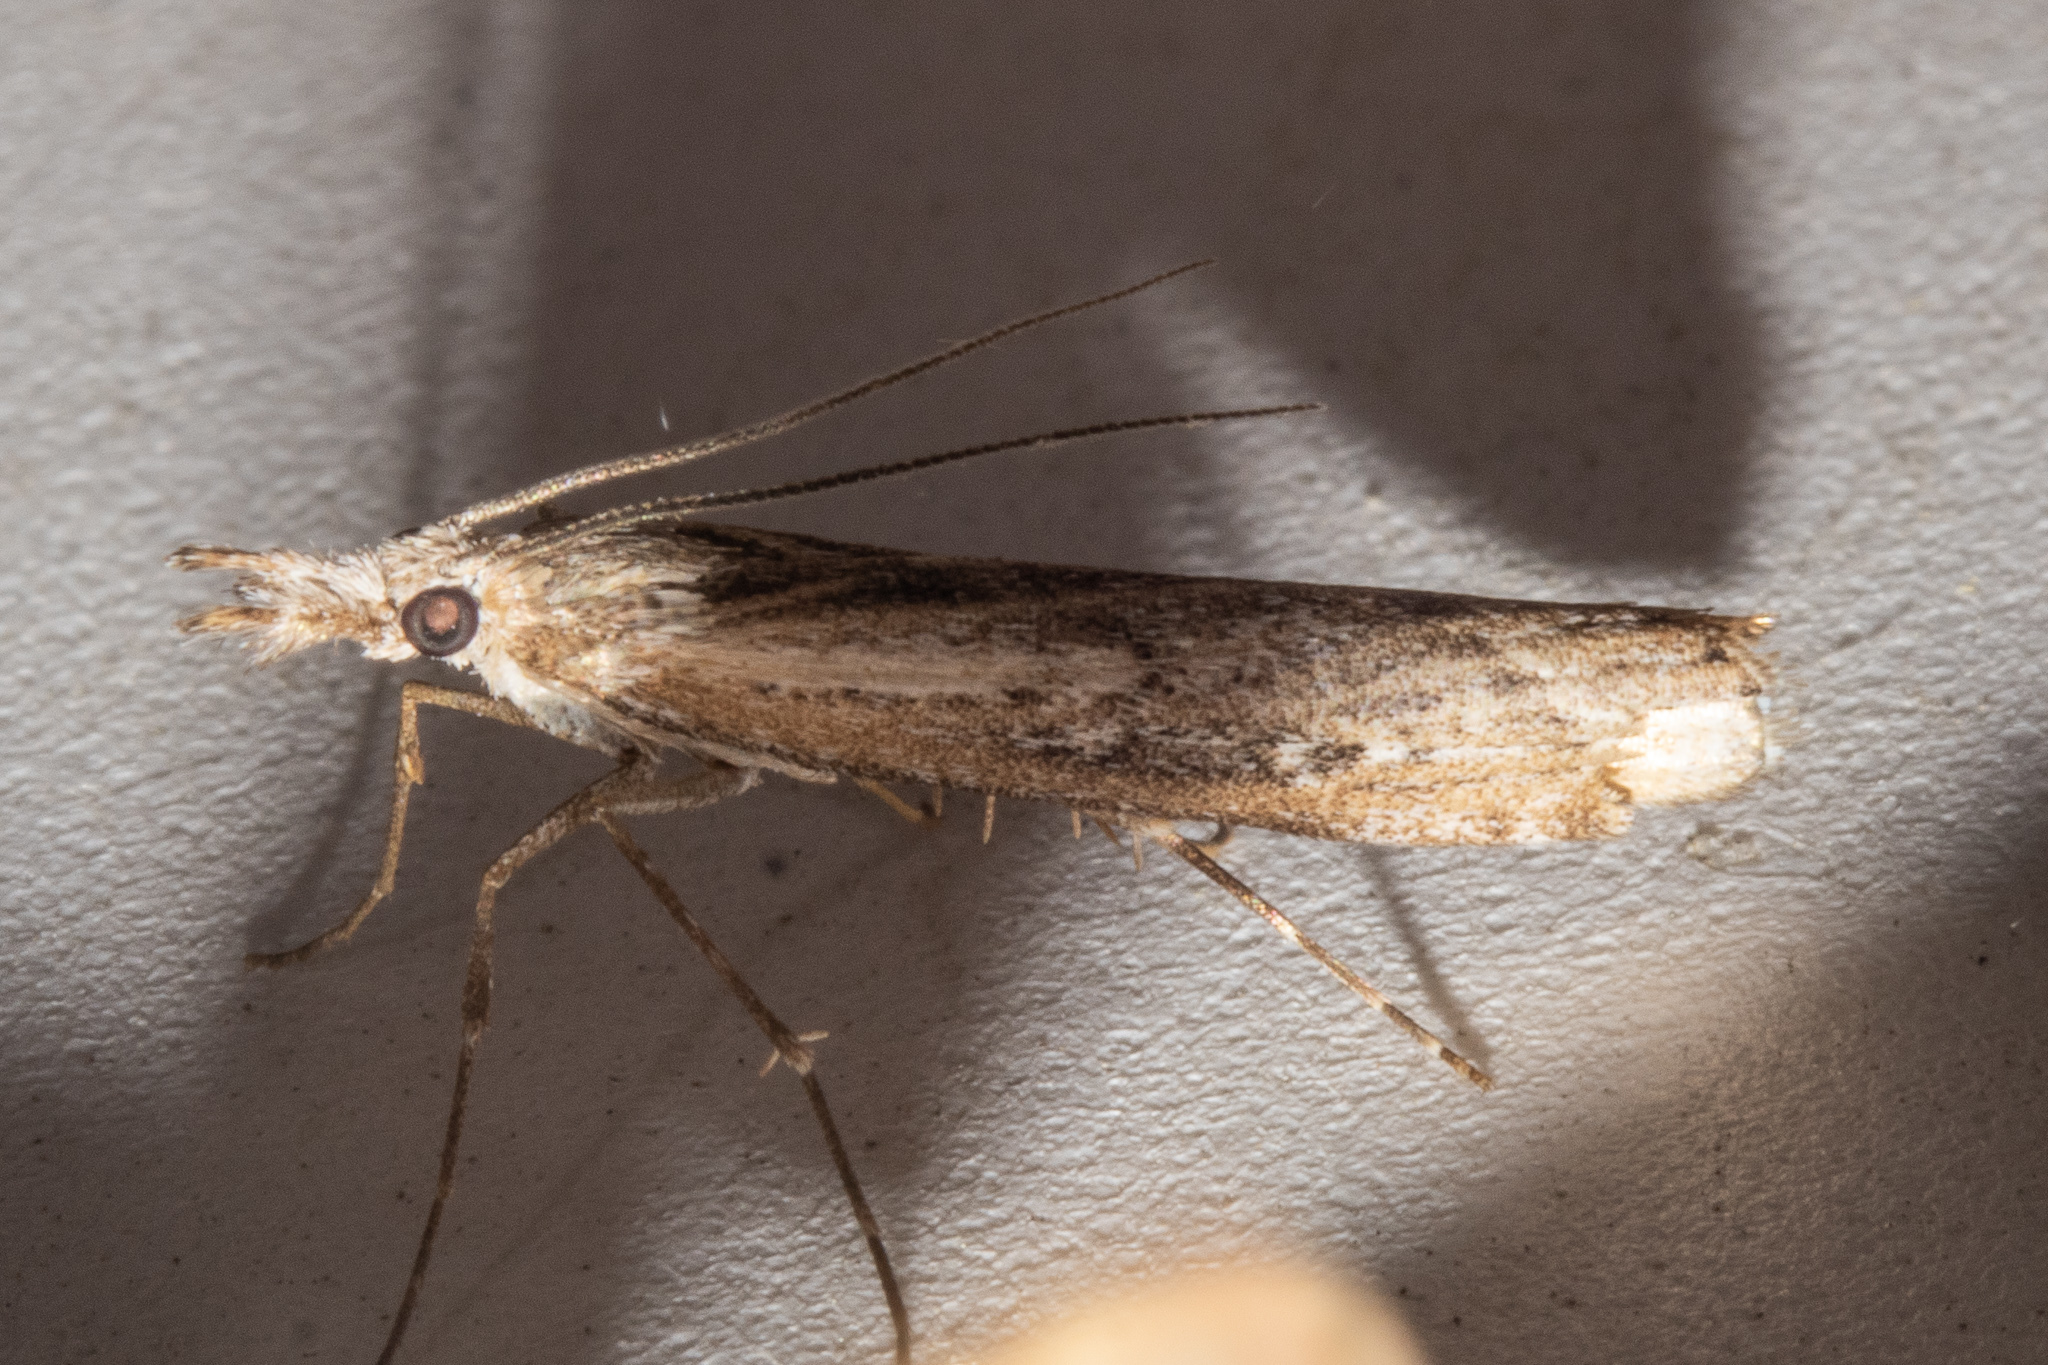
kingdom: Animalia
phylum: Arthropoda
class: Insecta
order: Lepidoptera
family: Crambidae
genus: Orocrambus
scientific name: Orocrambus cyclopicus
